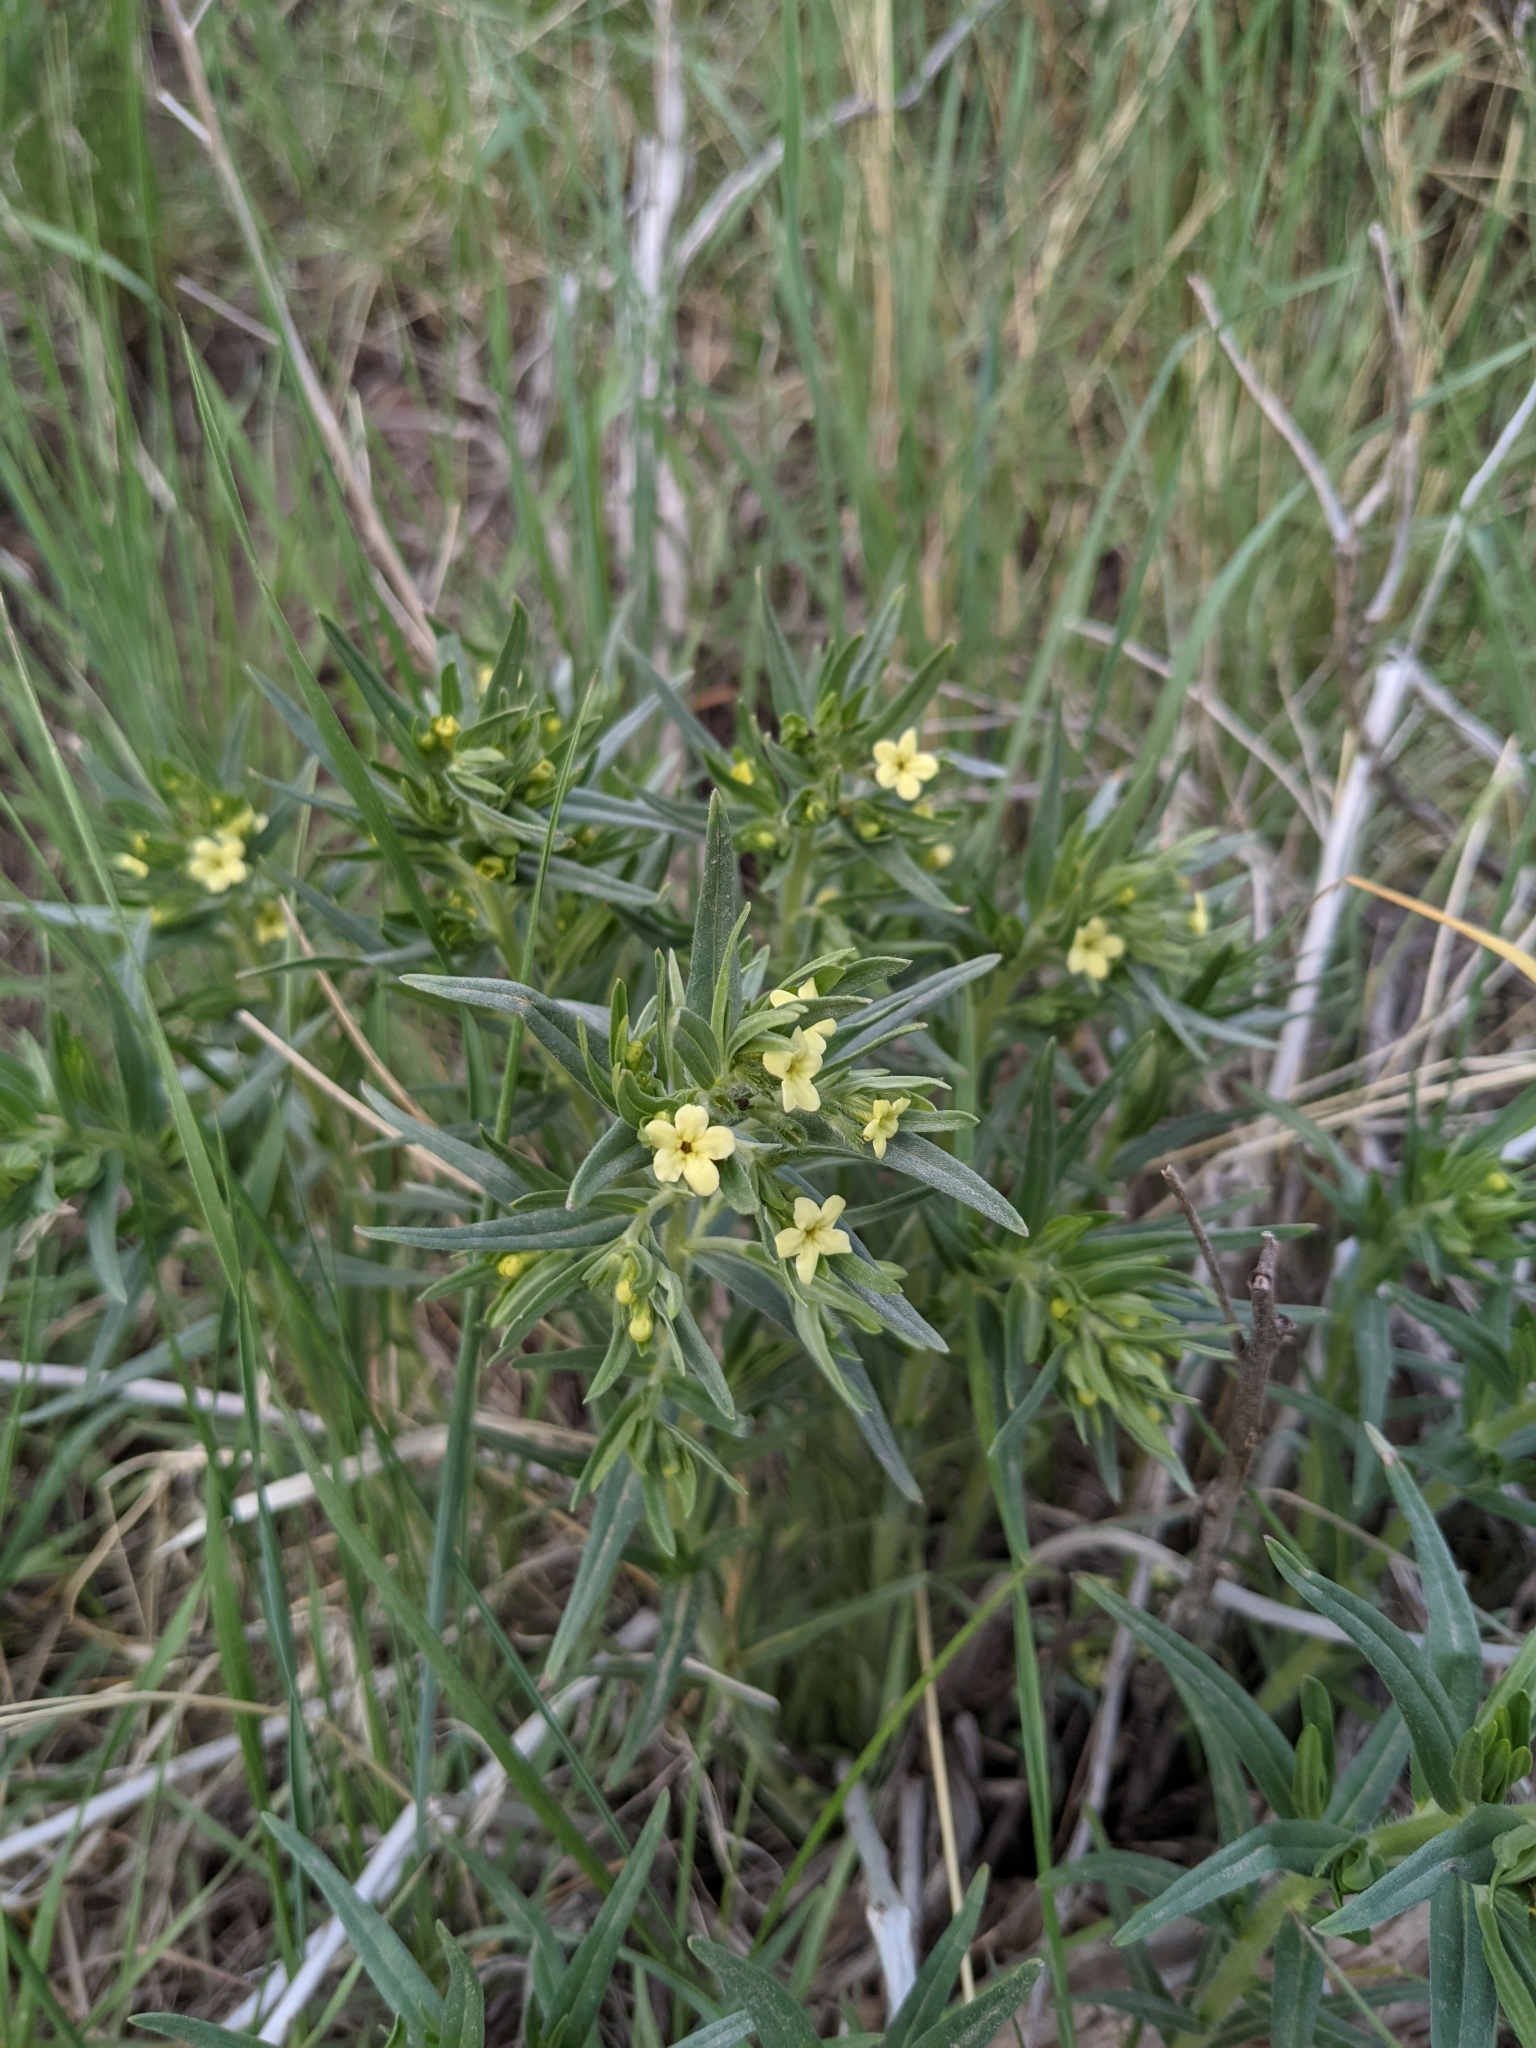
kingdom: Plantae
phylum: Tracheophyta
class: Magnoliopsida
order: Boraginales
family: Boraginaceae
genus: Lithospermum
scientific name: Lithospermum ruderale
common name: Western gromwell
